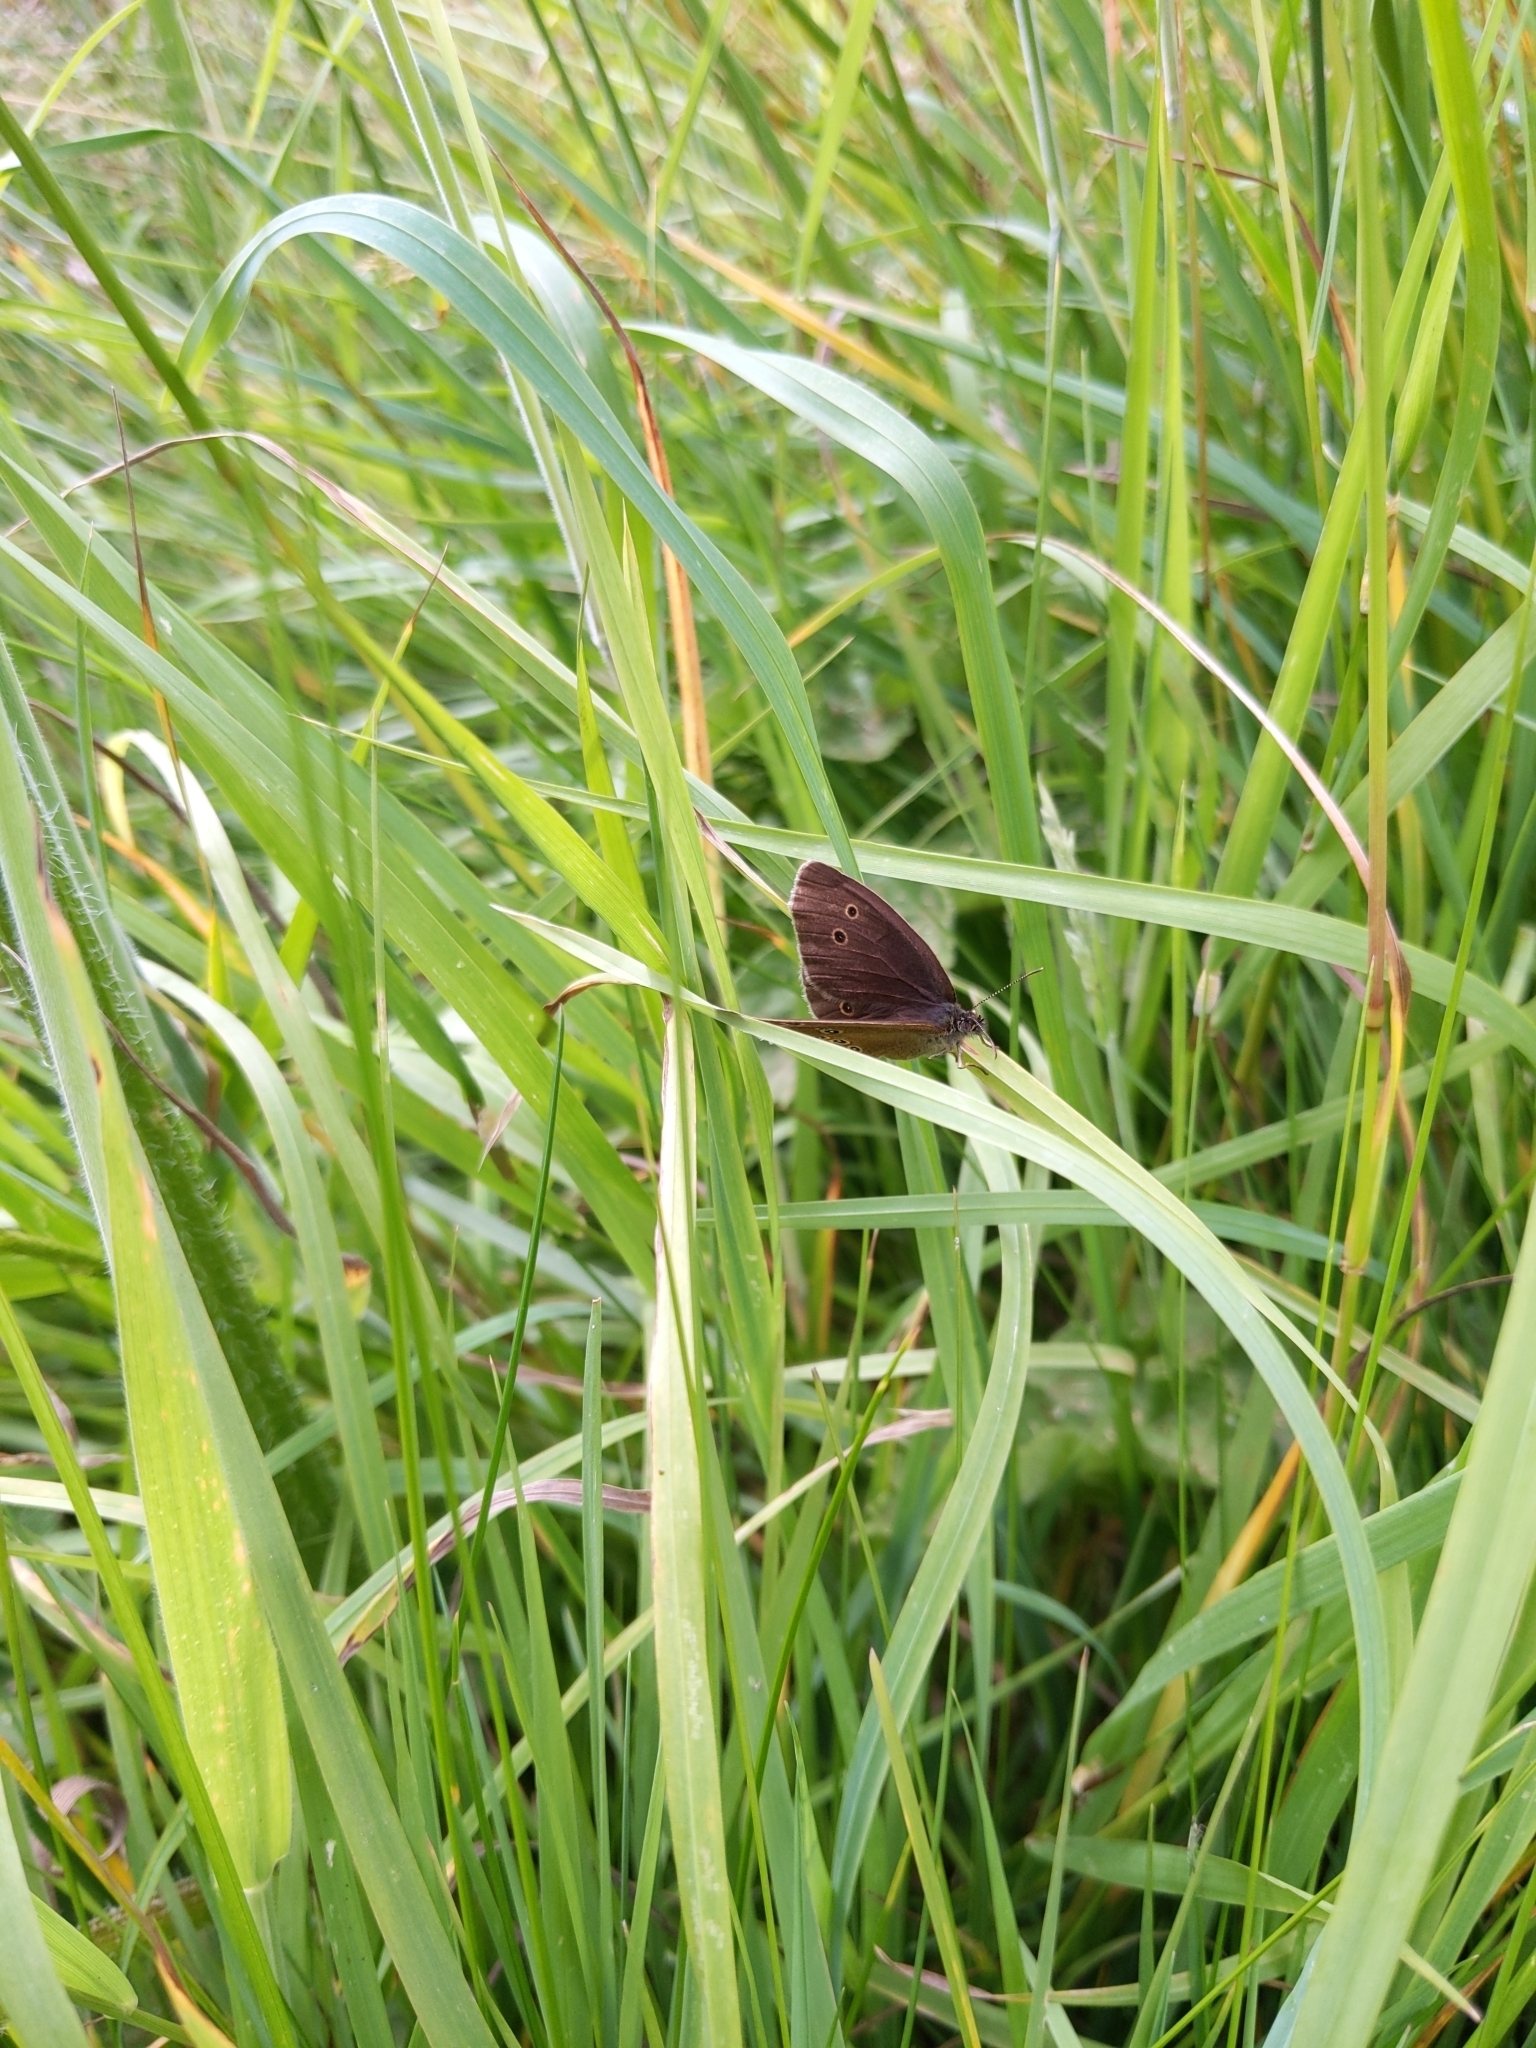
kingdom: Animalia
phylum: Arthropoda
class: Insecta
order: Lepidoptera
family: Nymphalidae
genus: Aphantopus
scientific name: Aphantopus hyperantus
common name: Ringlet
